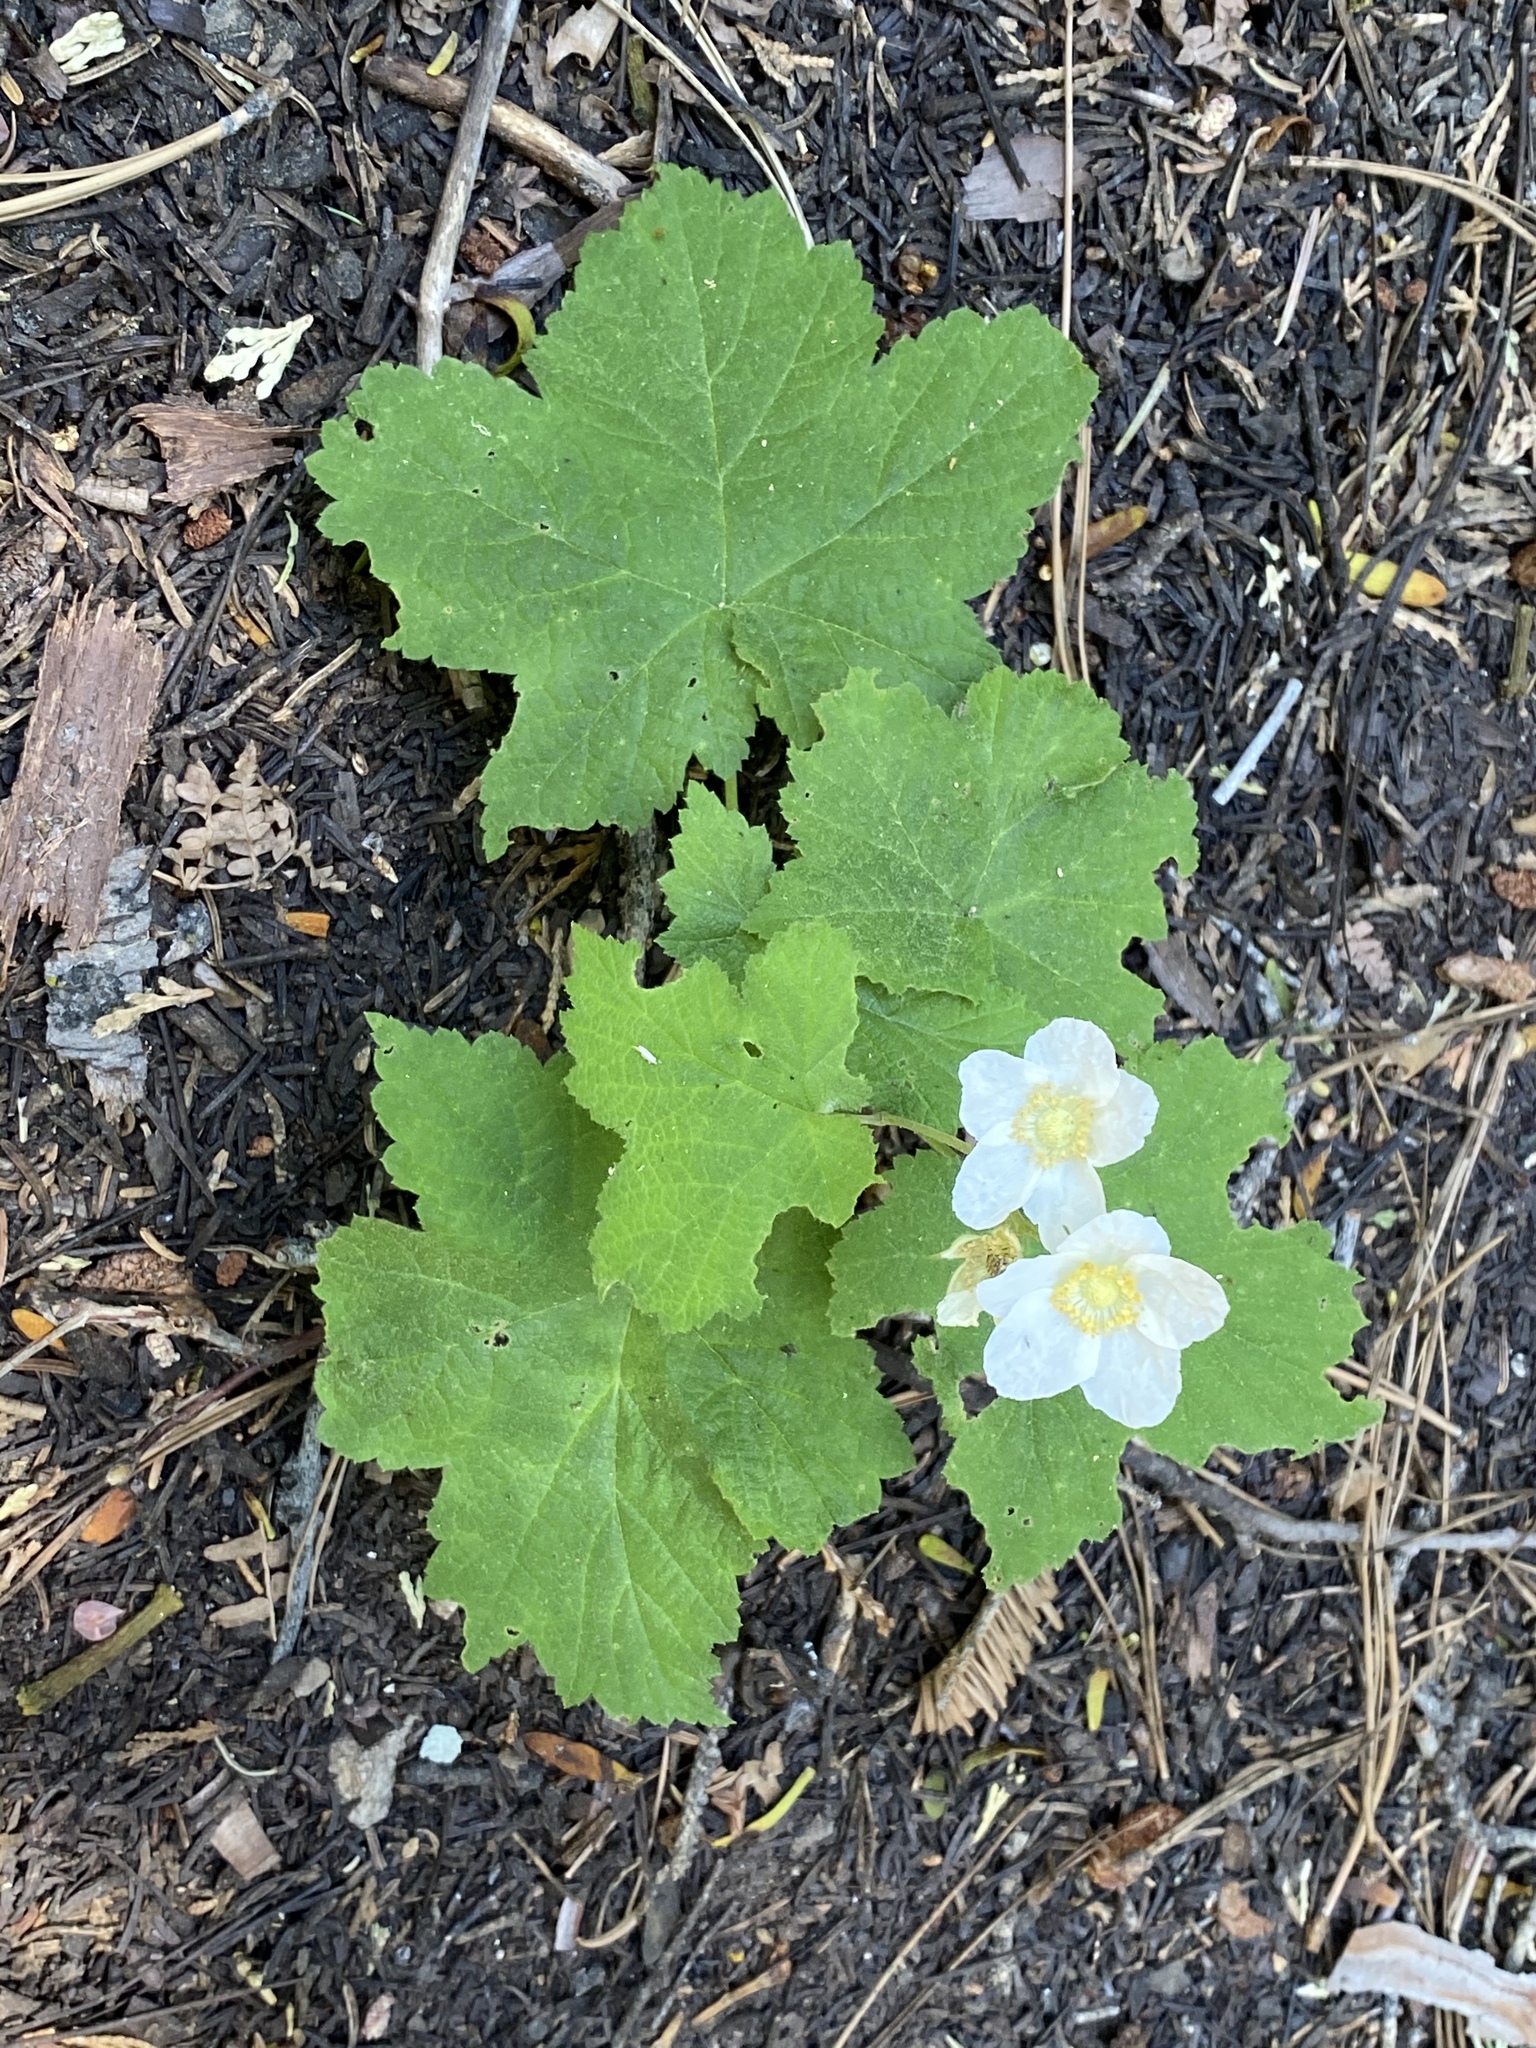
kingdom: Plantae
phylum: Tracheophyta
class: Magnoliopsida
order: Rosales
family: Rosaceae
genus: Rubus
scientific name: Rubus parviflorus
